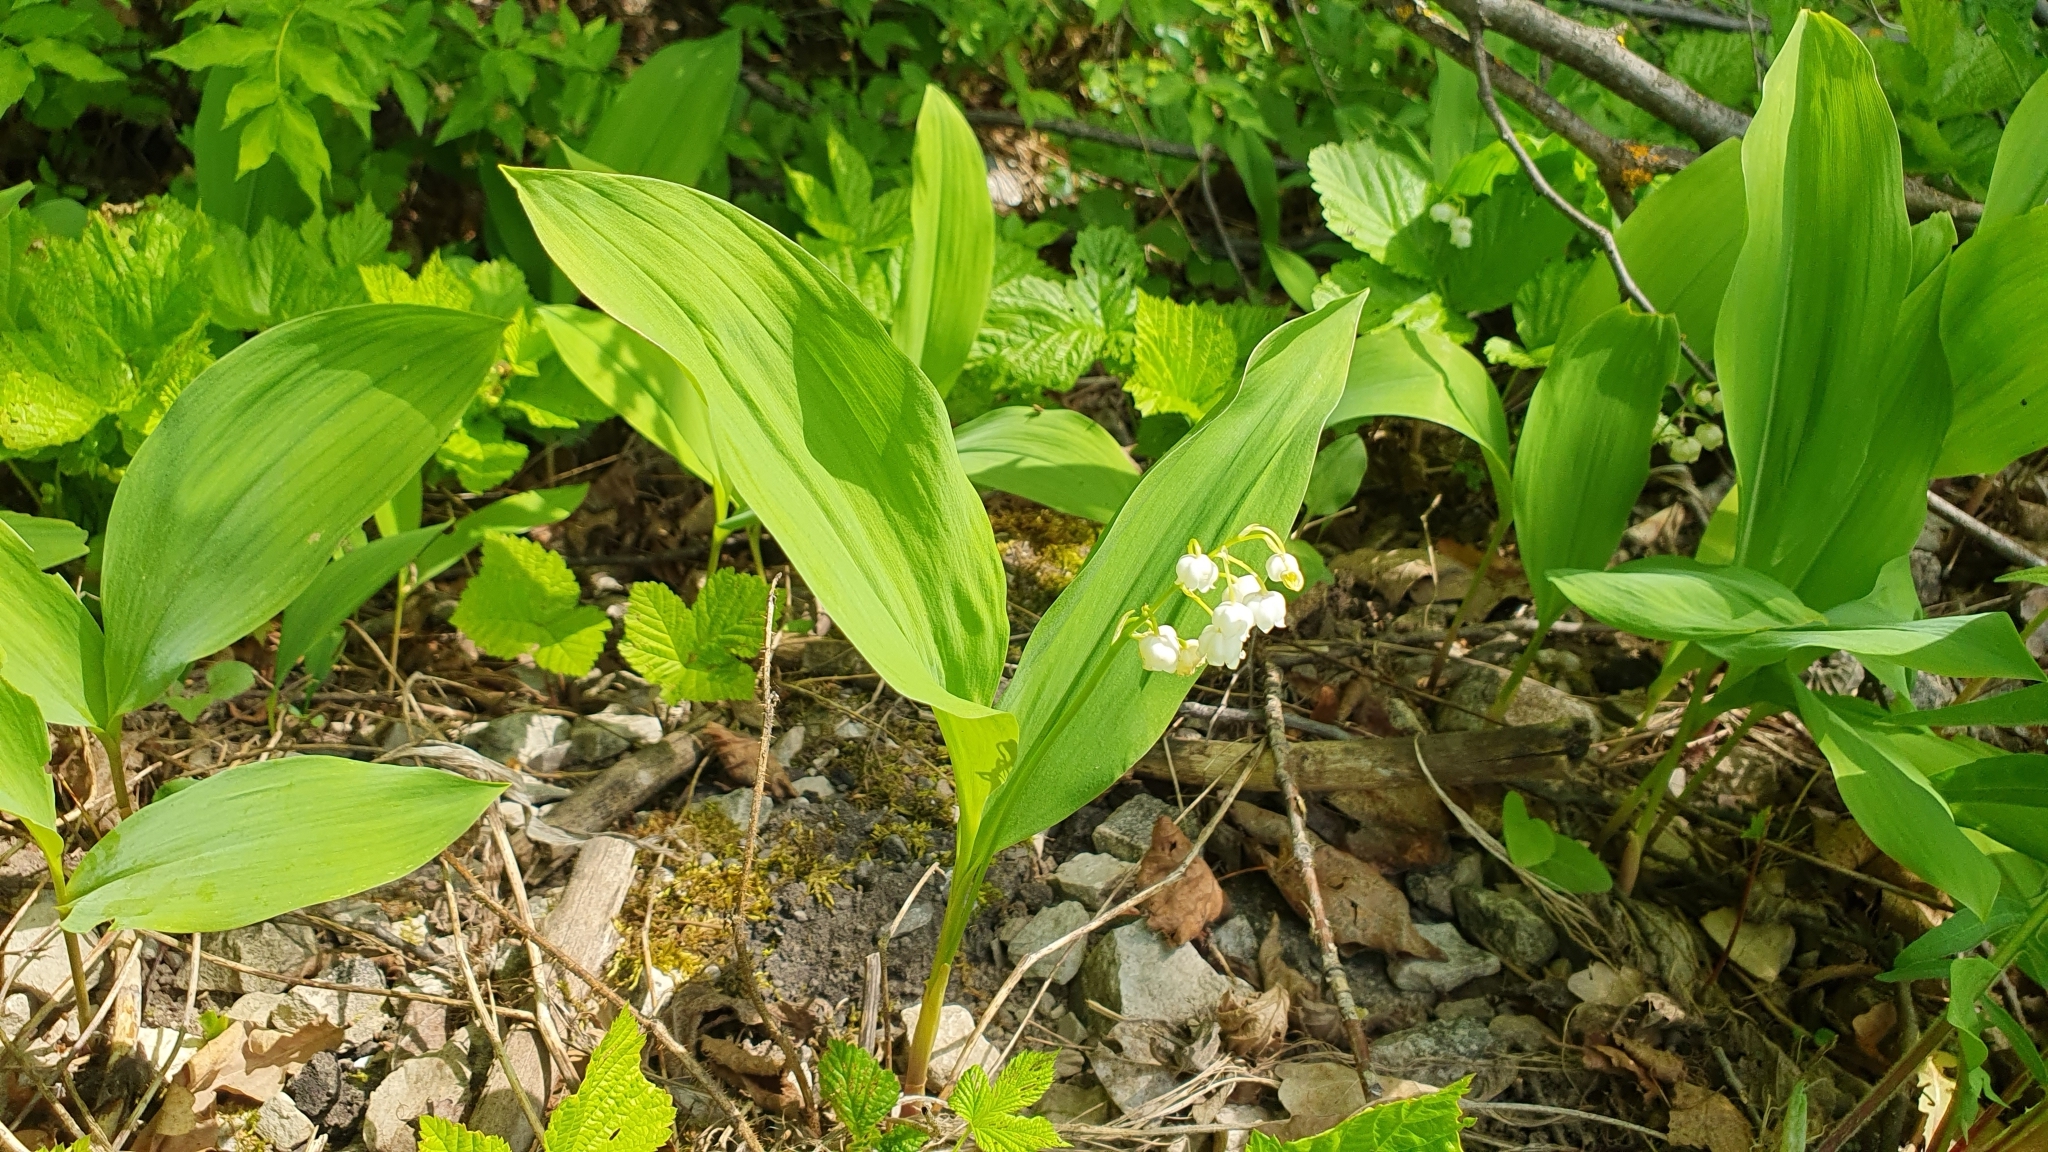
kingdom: Plantae
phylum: Tracheophyta
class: Liliopsida
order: Asparagales
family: Asparagaceae
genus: Convallaria
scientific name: Convallaria majalis
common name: Lily-of-the-valley
